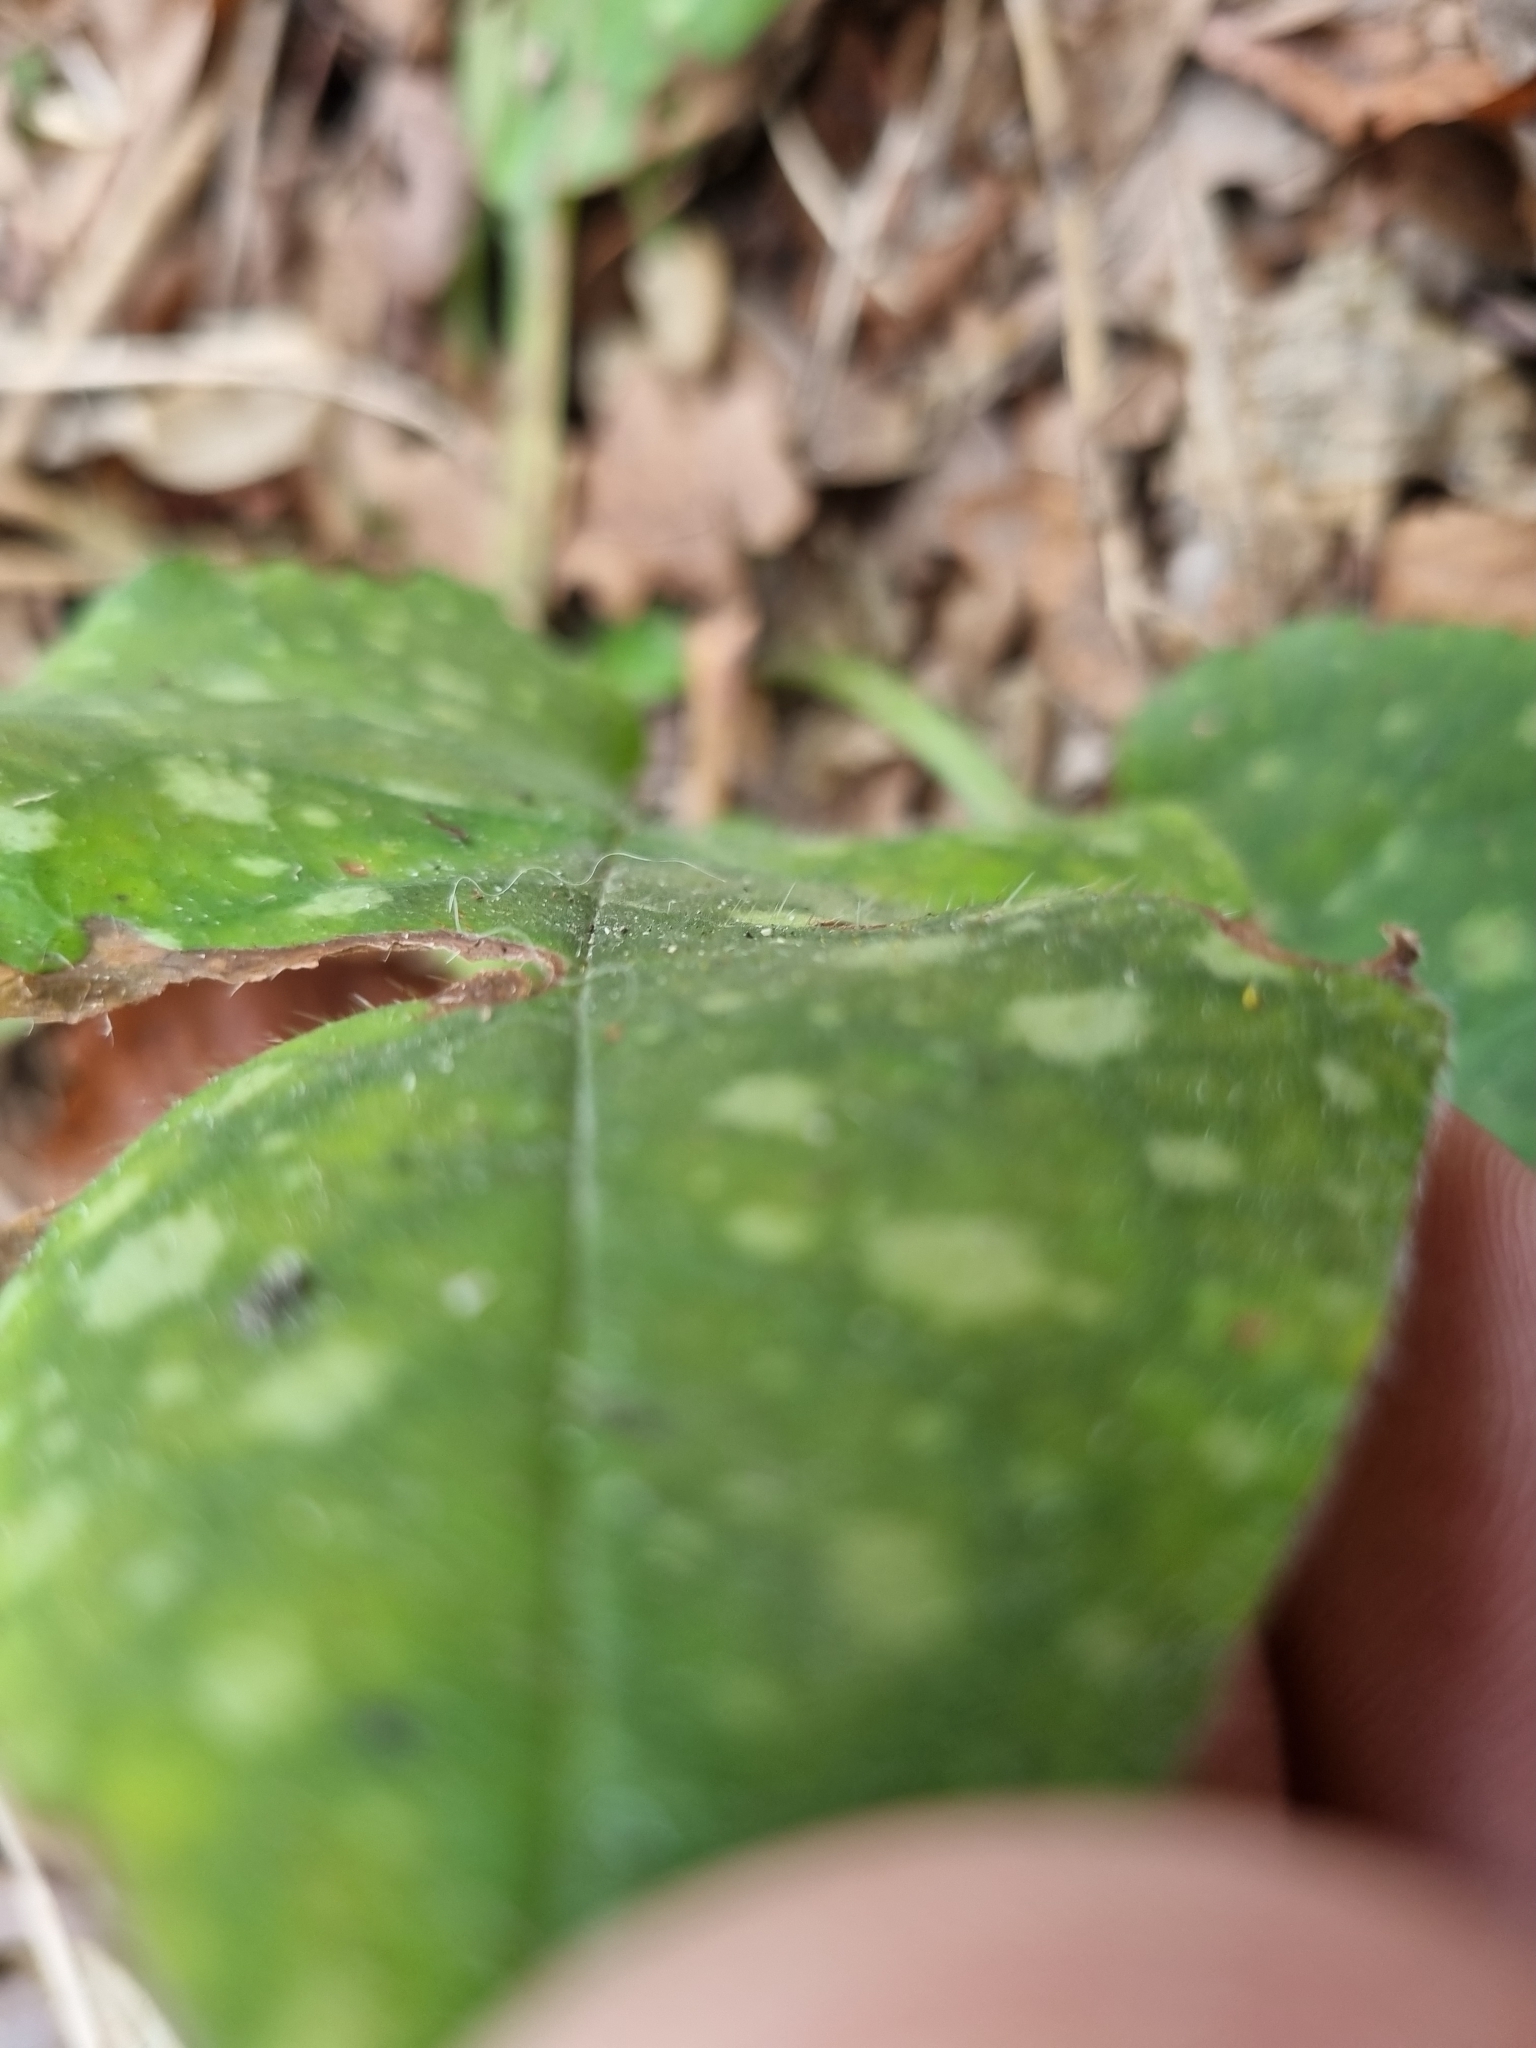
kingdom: Plantae
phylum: Tracheophyta
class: Magnoliopsida
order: Boraginales
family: Boraginaceae
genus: Pulmonaria
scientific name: Pulmonaria officinalis
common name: Lungwort
